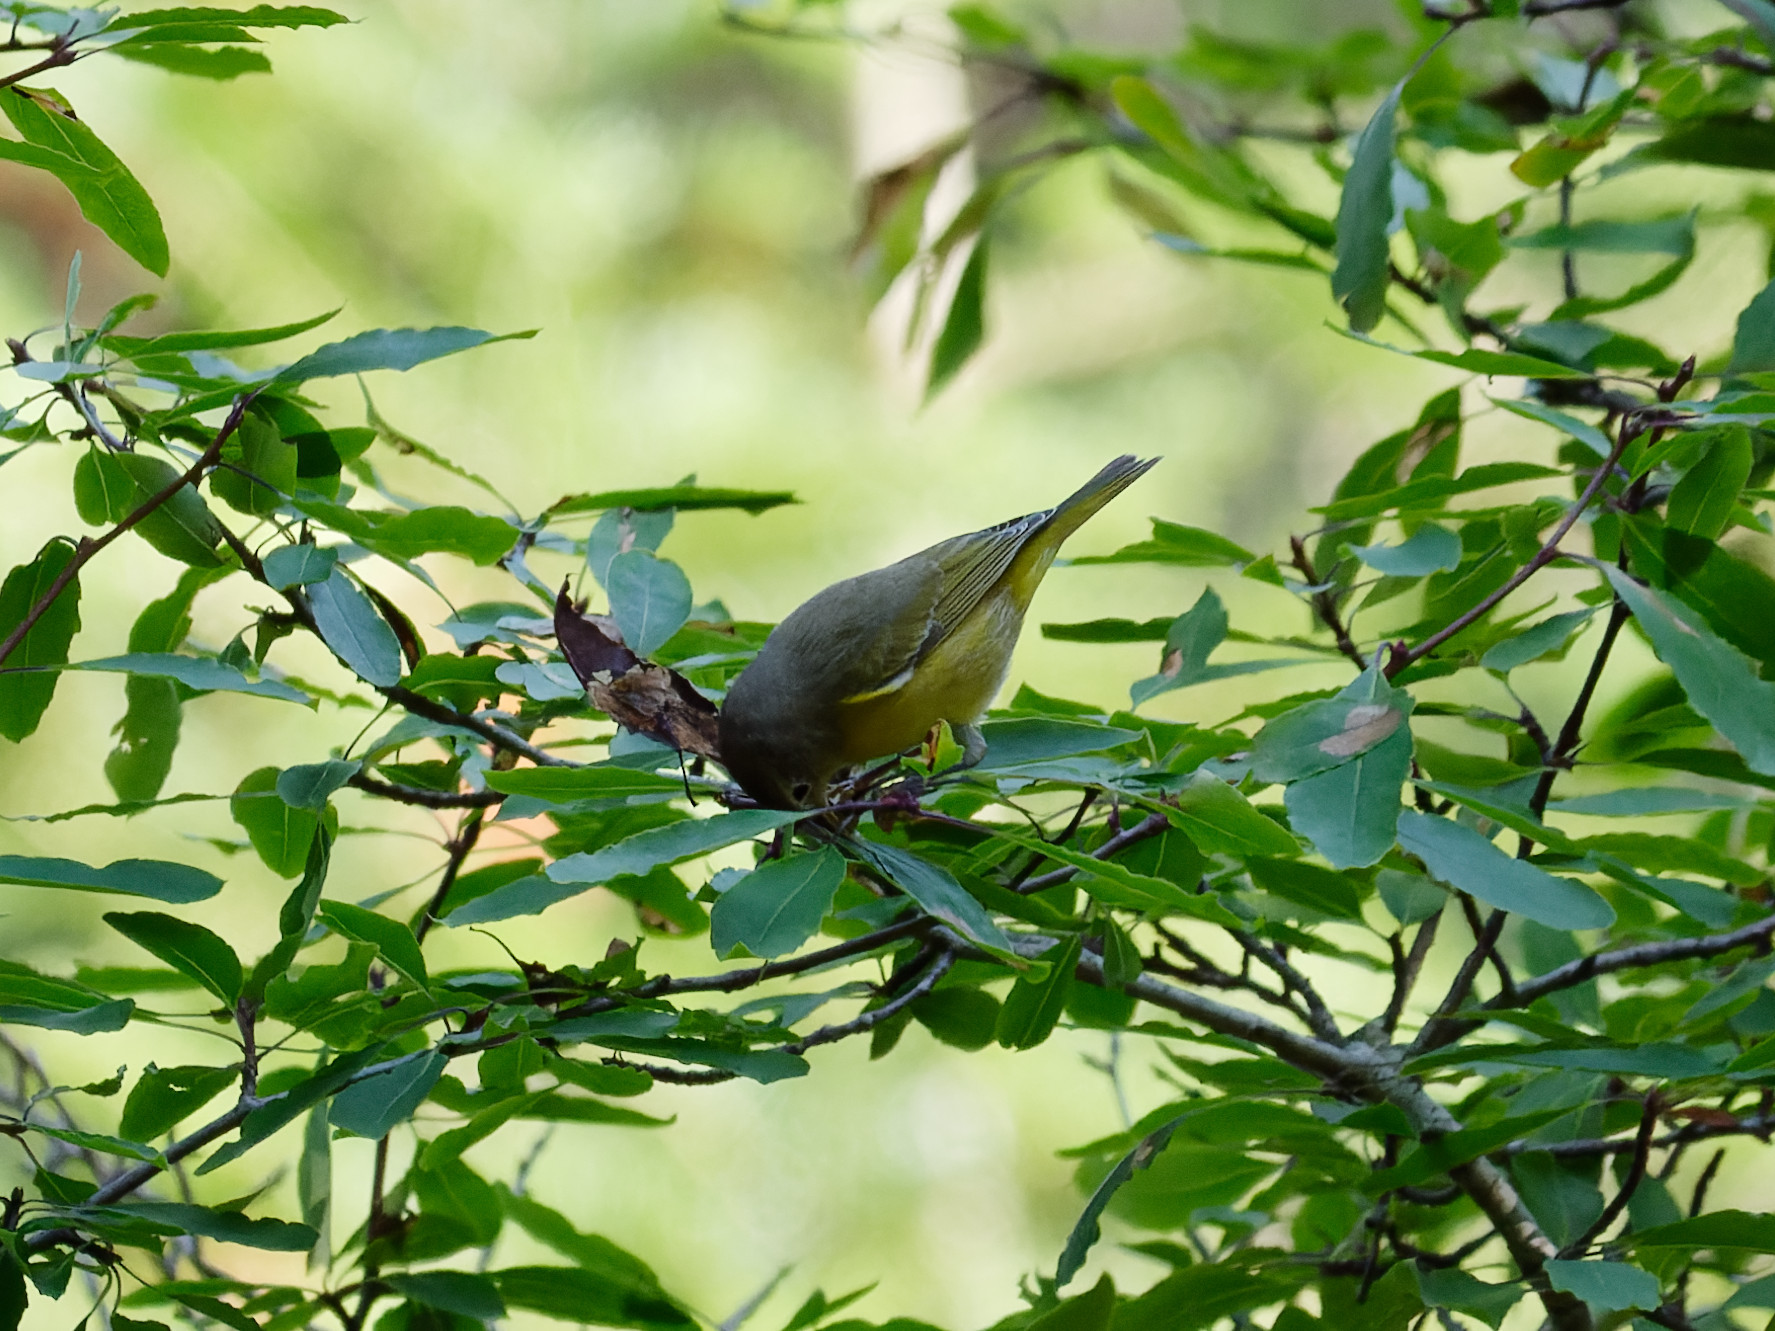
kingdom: Animalia
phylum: Chordata
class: Aves
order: Passeriformes
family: Parulidae
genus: Leiothlypis
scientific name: Leiothlypis ruficapilla
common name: Nashville warbler
